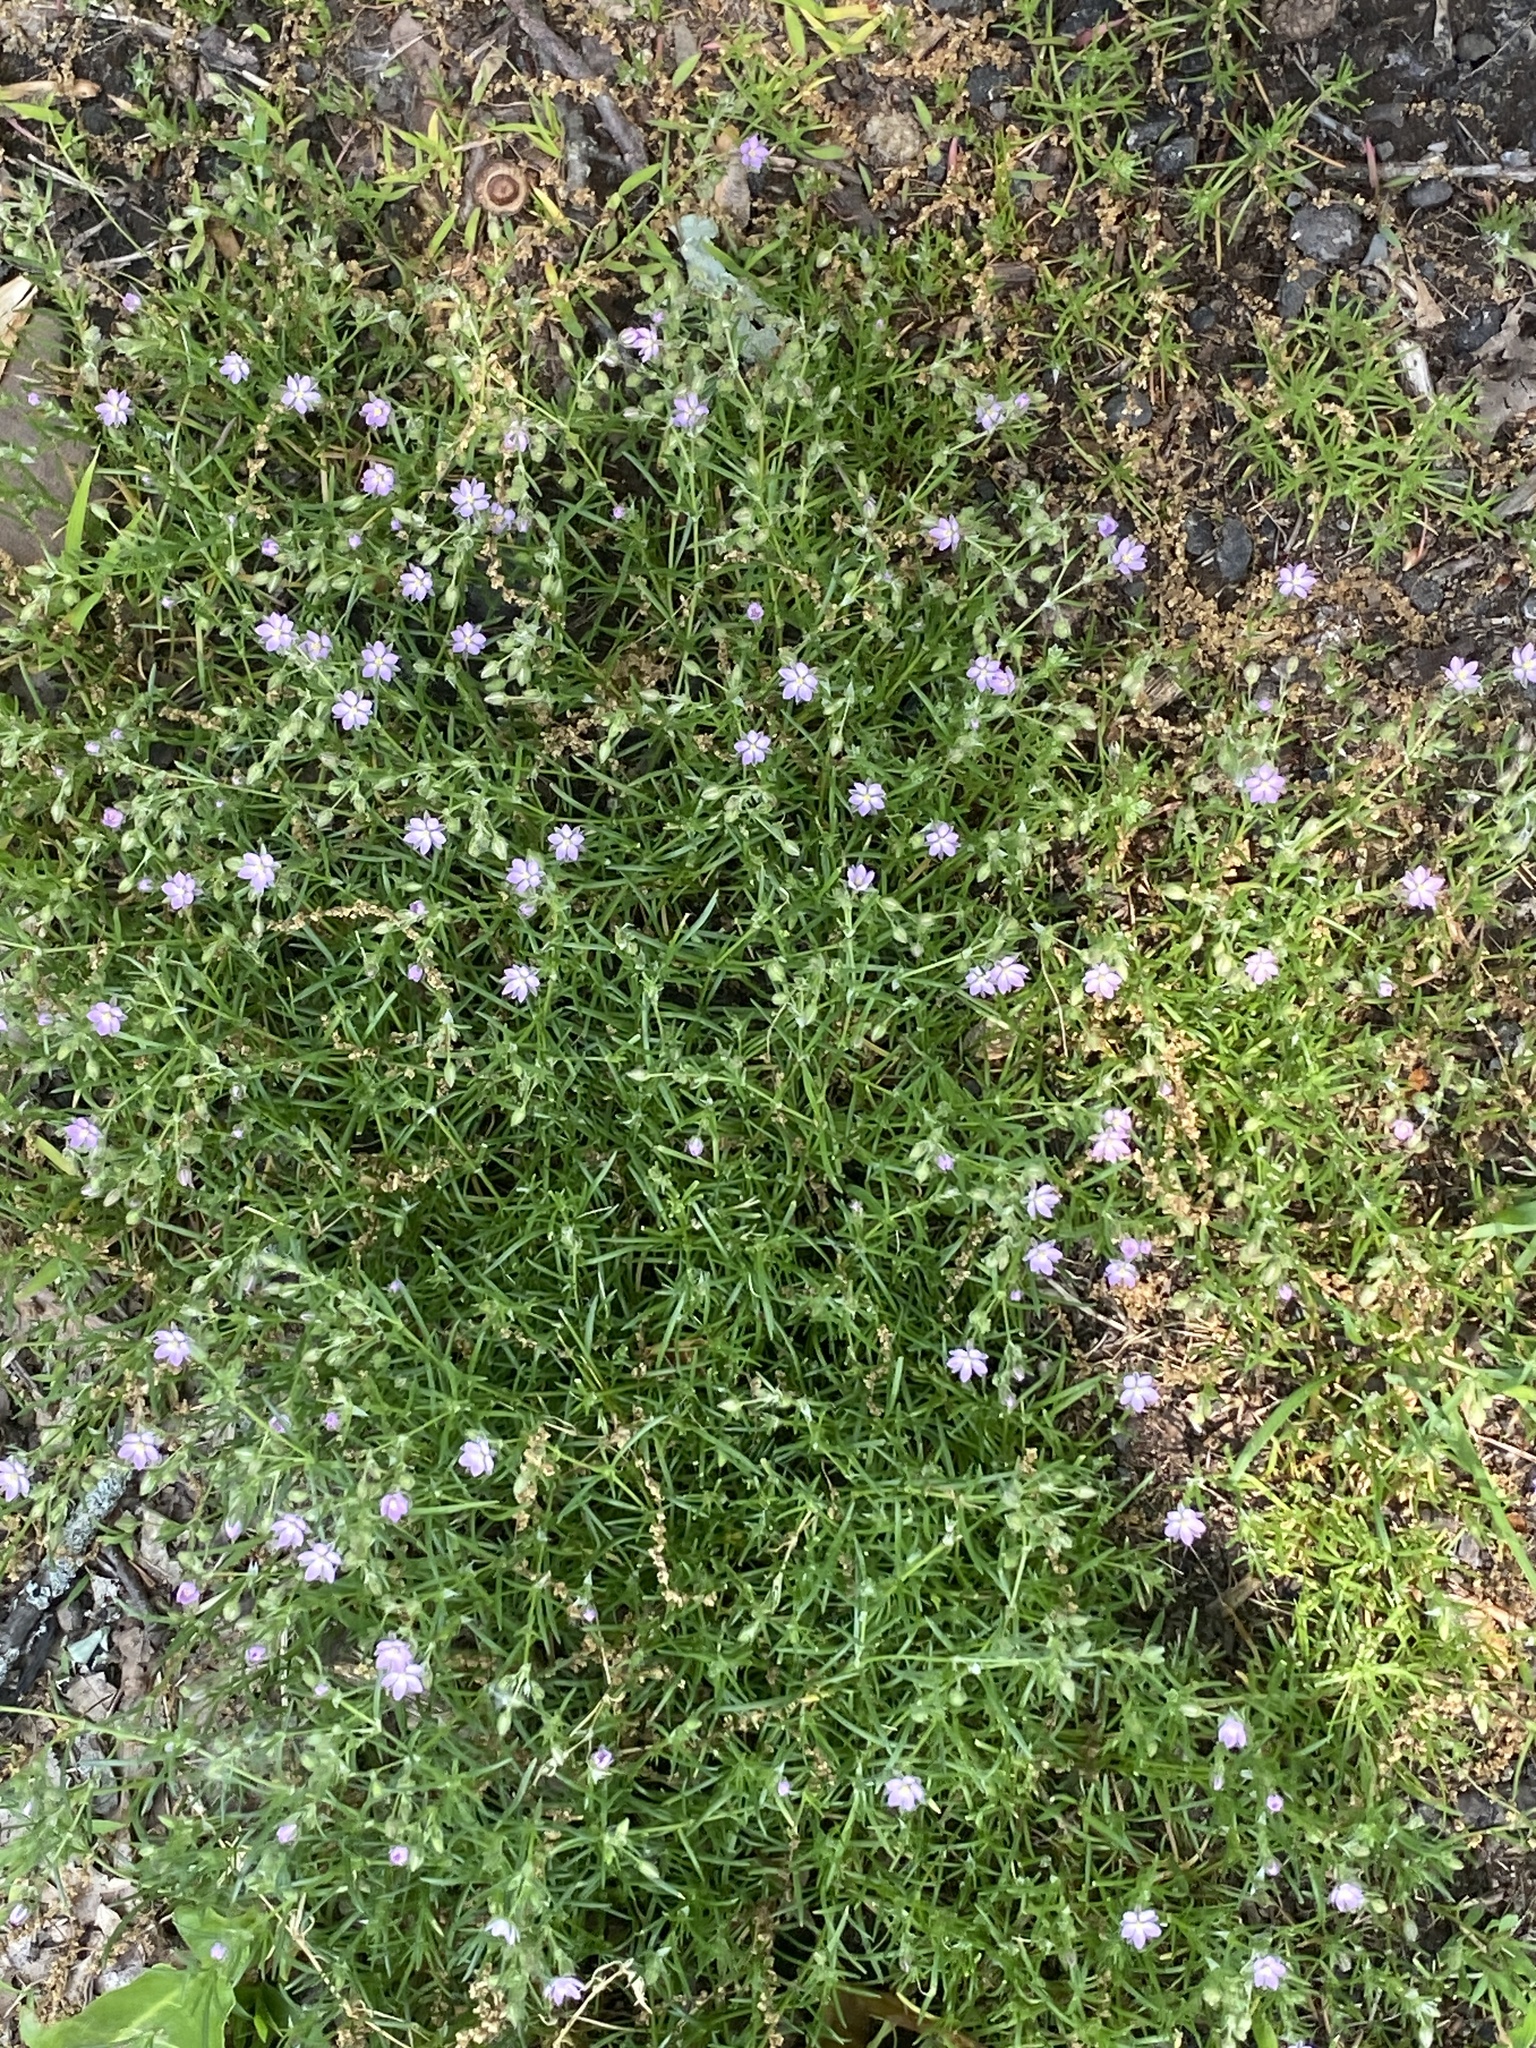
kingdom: Plantae
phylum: Tracheophyta
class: Magnoliopsida
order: Caryophyllales
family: Caryophyllaceae
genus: Spergularia
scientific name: Spergularia rubra
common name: Red sand-spurrey
